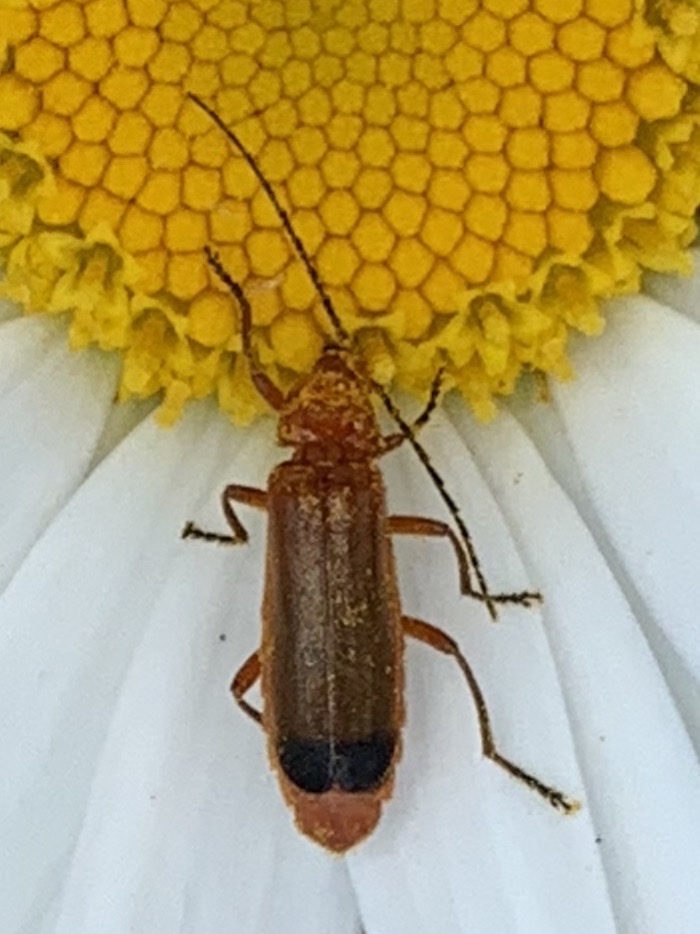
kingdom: Animalia
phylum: Arthropoda
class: Insecta
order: Coleoptera
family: Cantharidae
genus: Rhagonycha
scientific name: Rhagonycha fulva
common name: Common red soldier beetle
